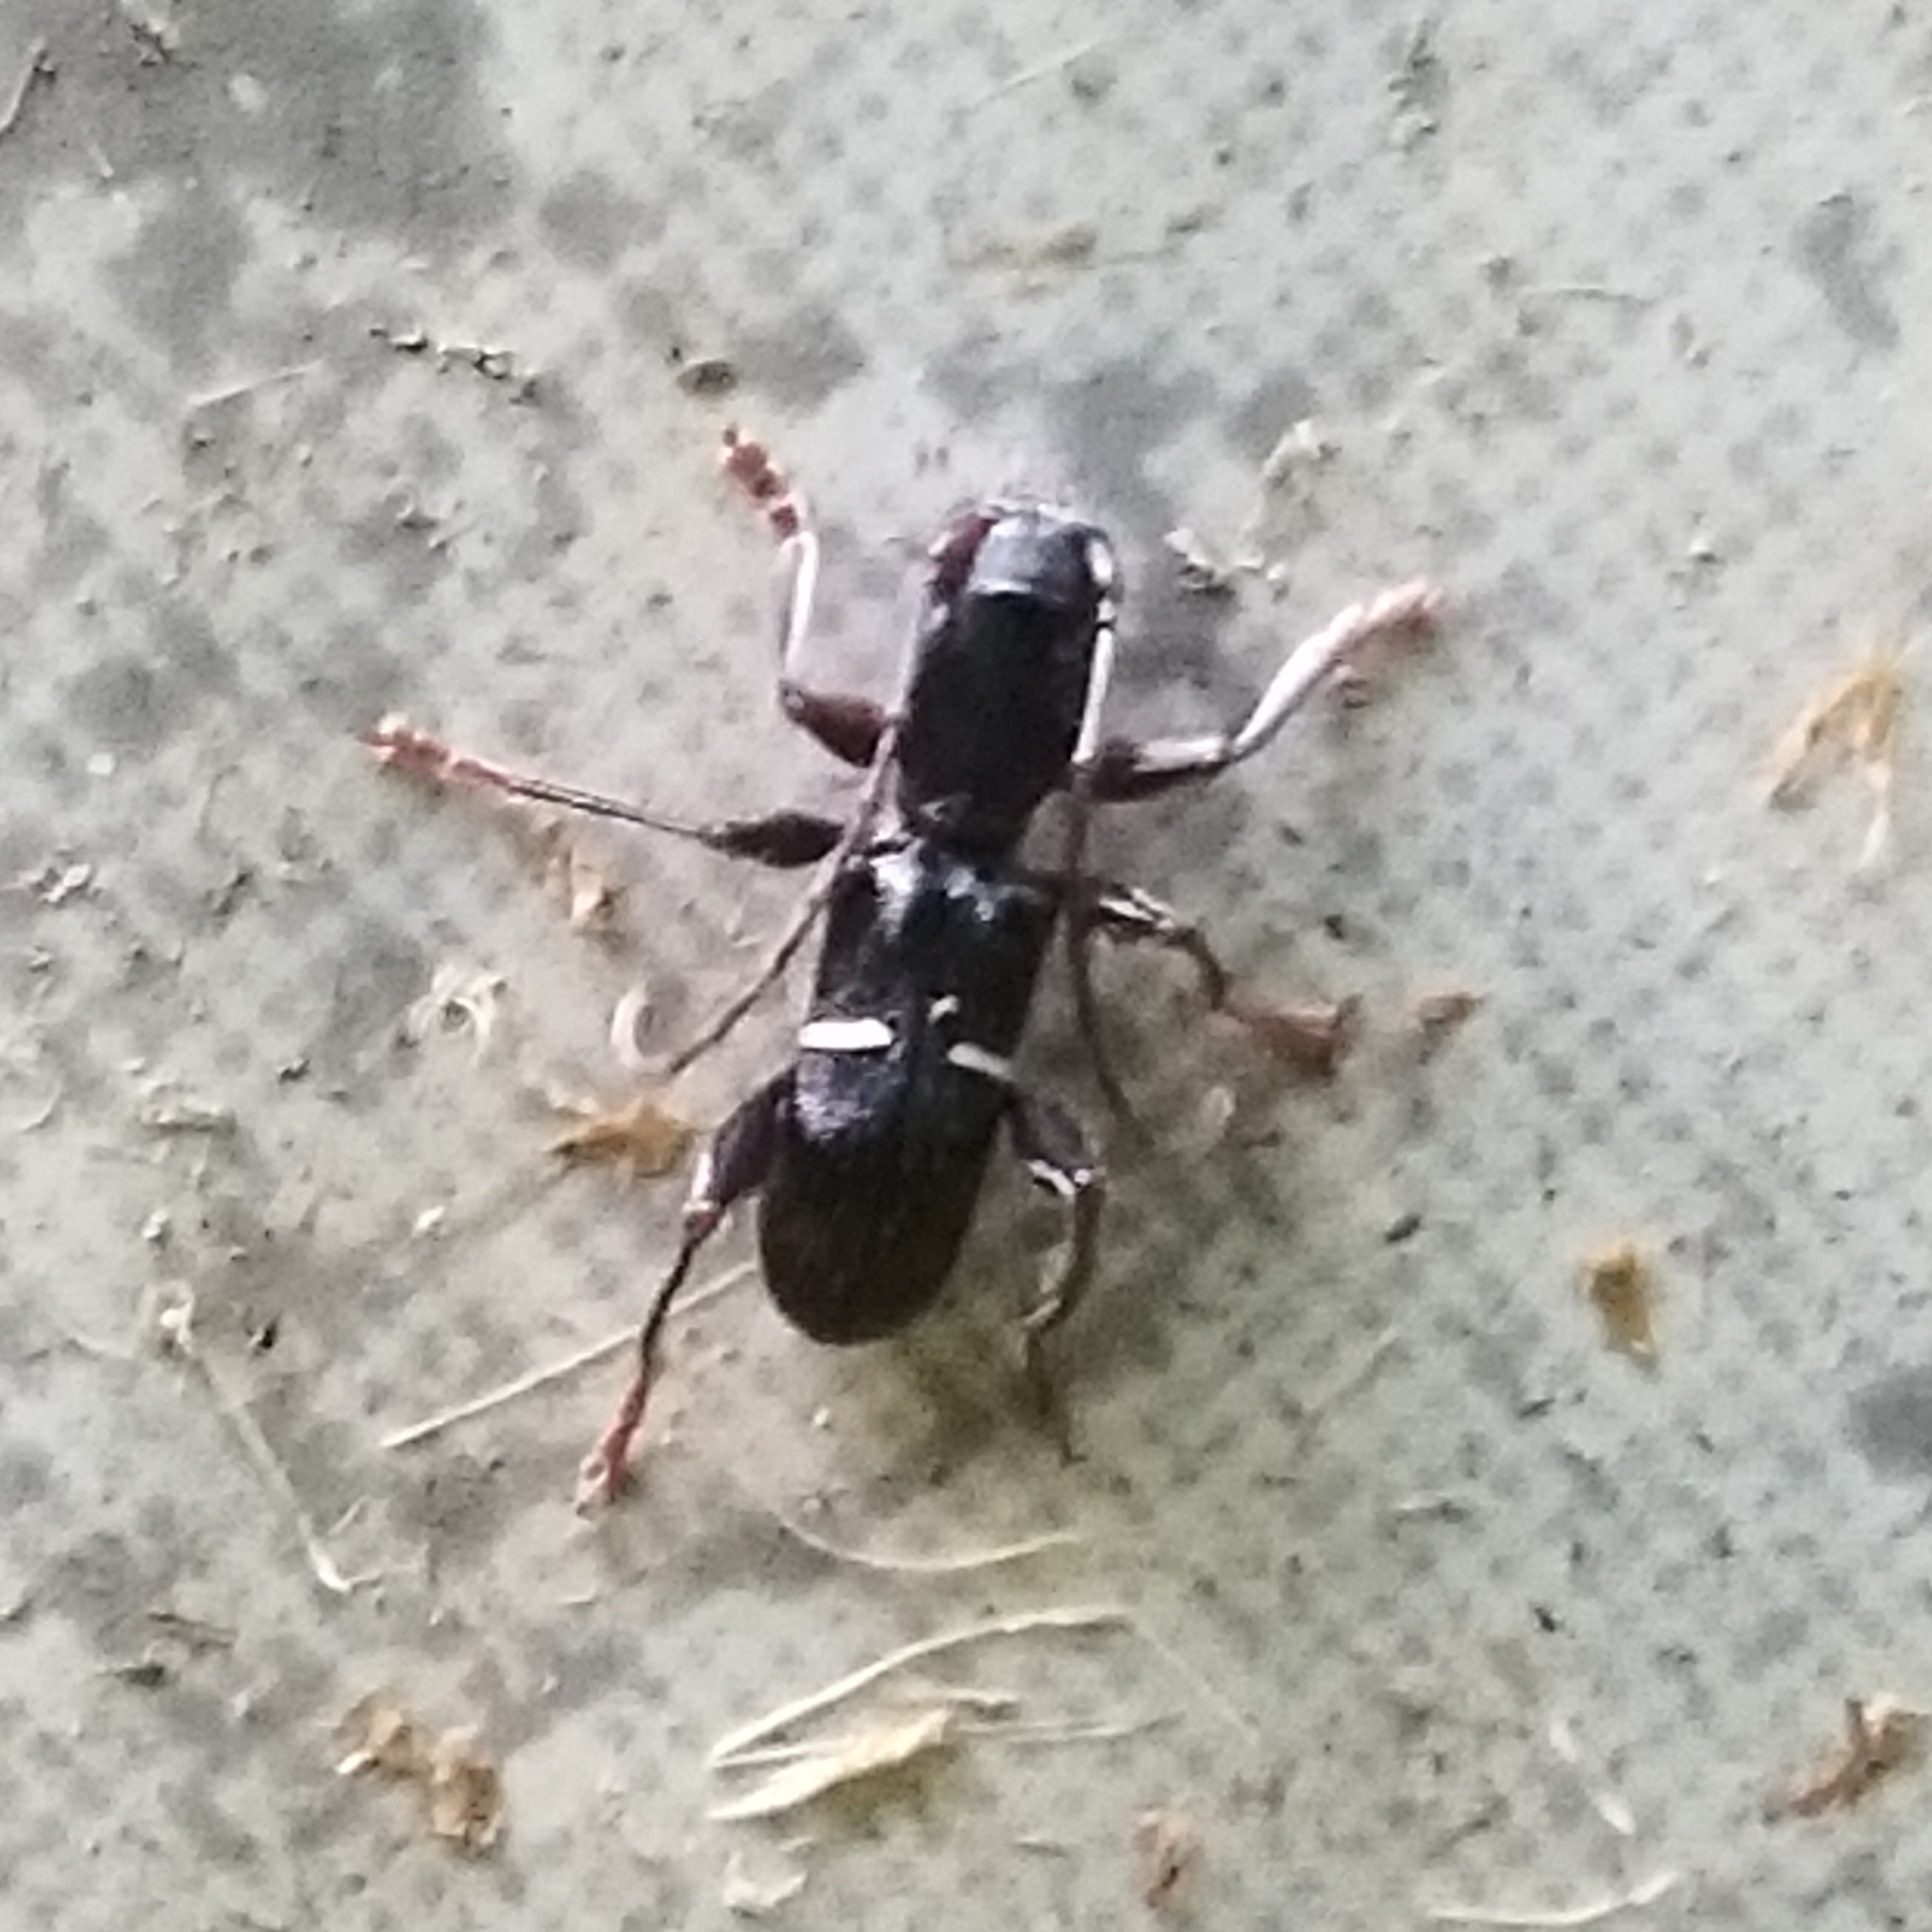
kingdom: Animalia
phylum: Arthropoda
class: Insecta
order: Coleoptera
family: Cerambycidae
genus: Euderces
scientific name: Euderces picipes
